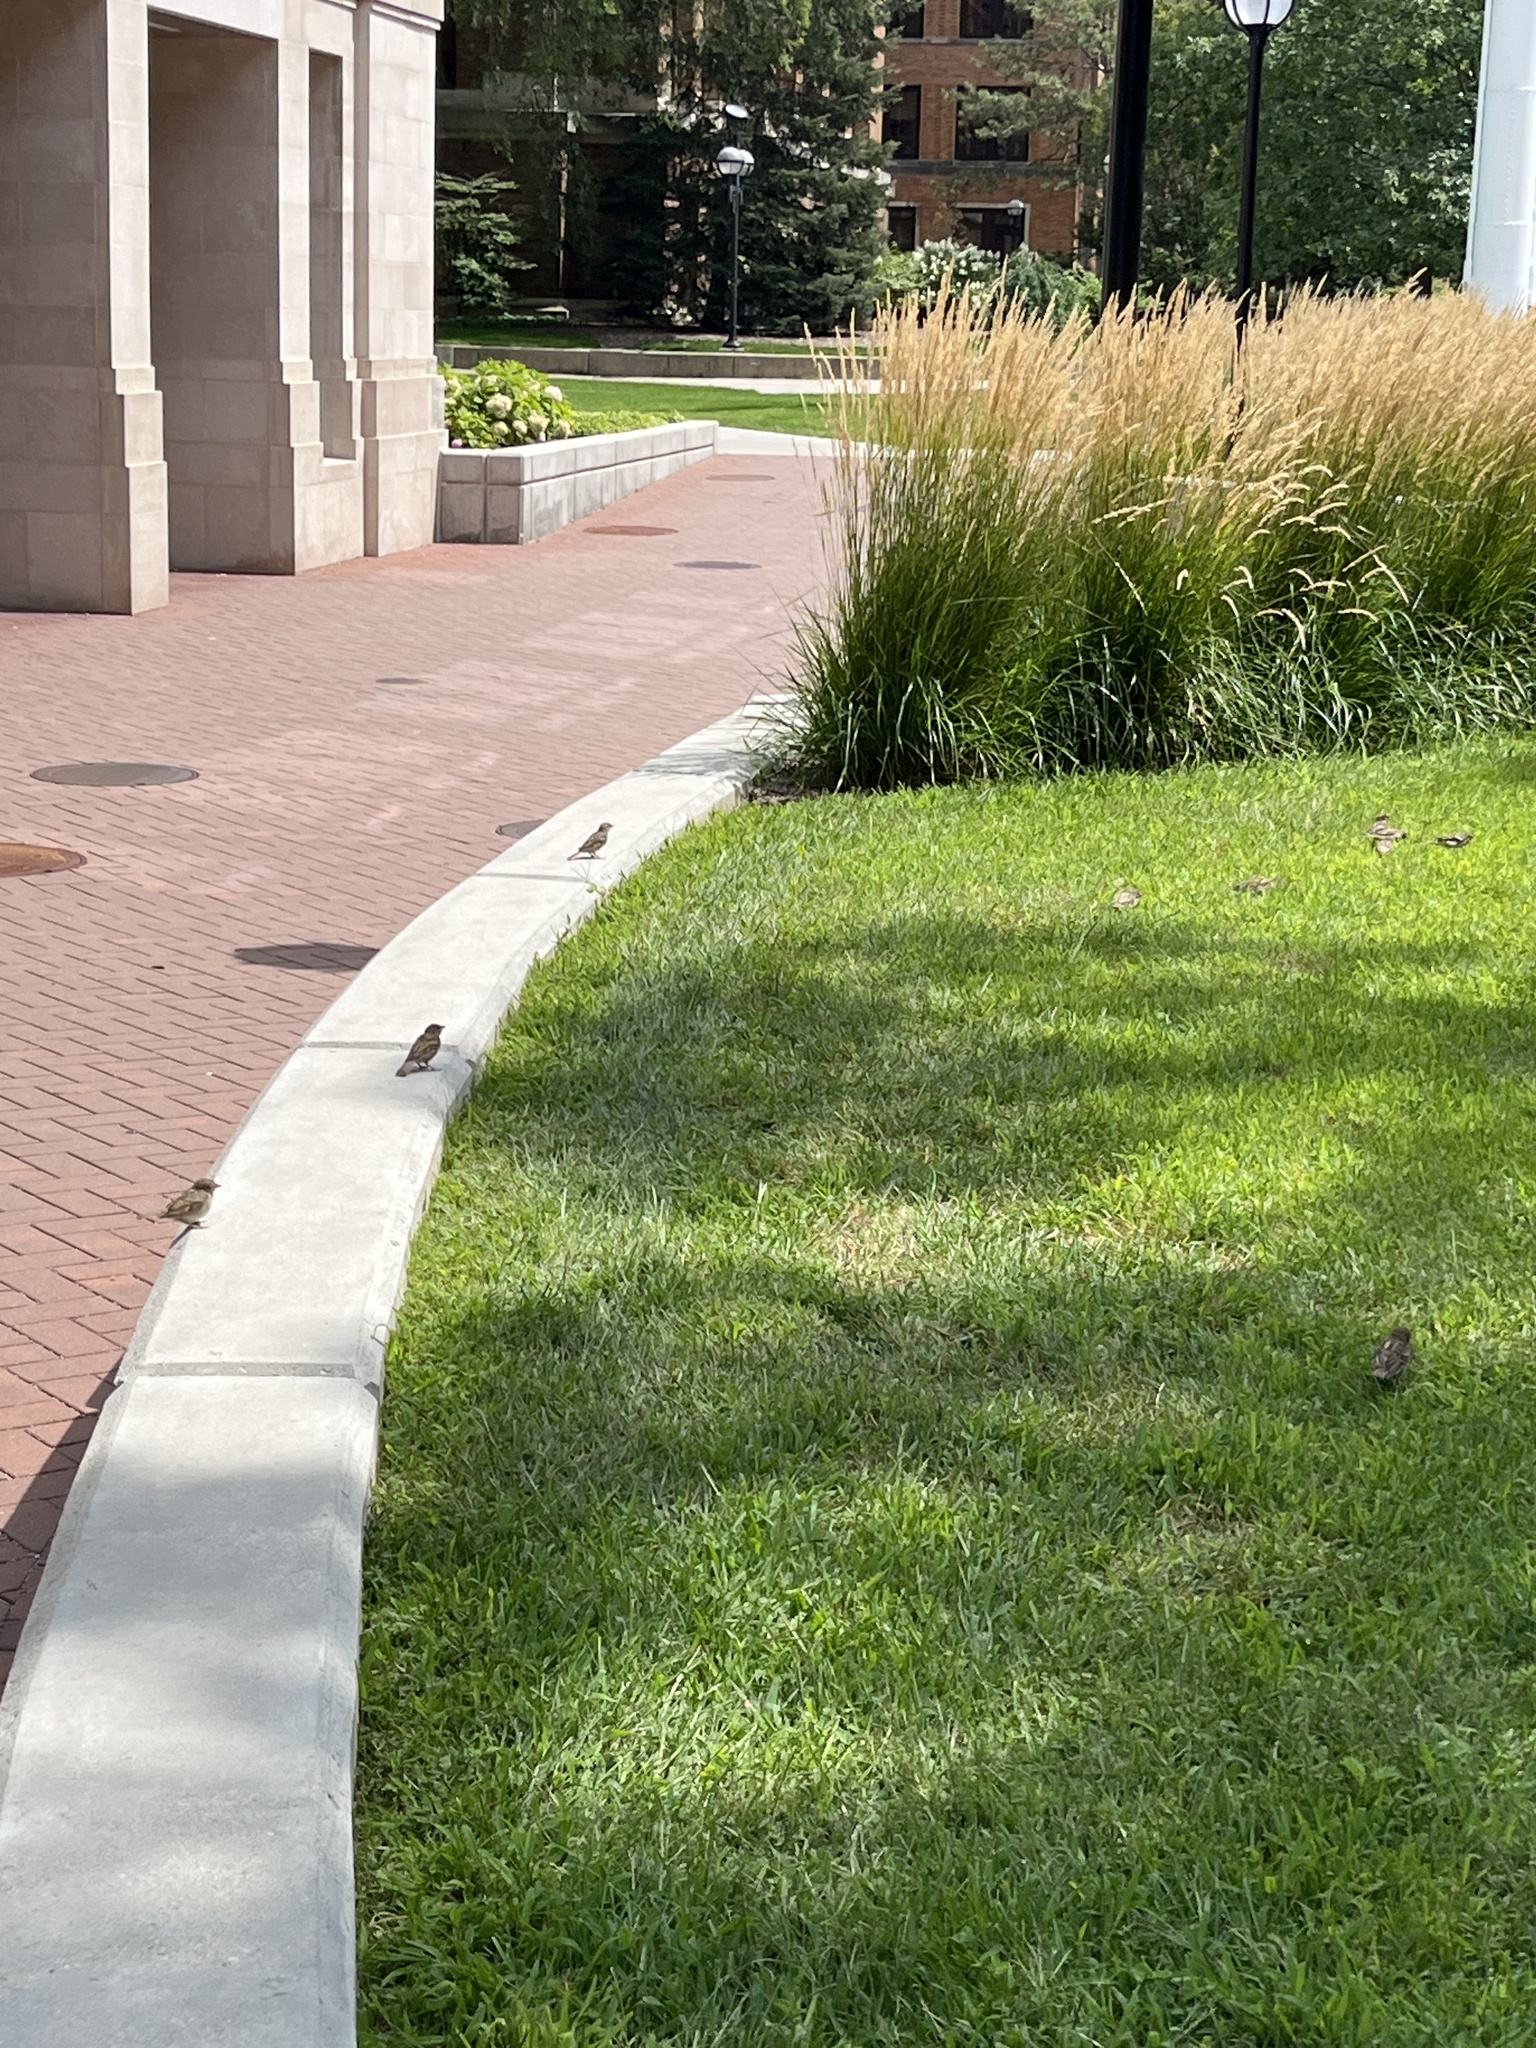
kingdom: Animalia
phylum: Chordata
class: Aves
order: Passeriformes
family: Passeridae
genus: Passer
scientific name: Passer domesticus
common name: House sparrow
